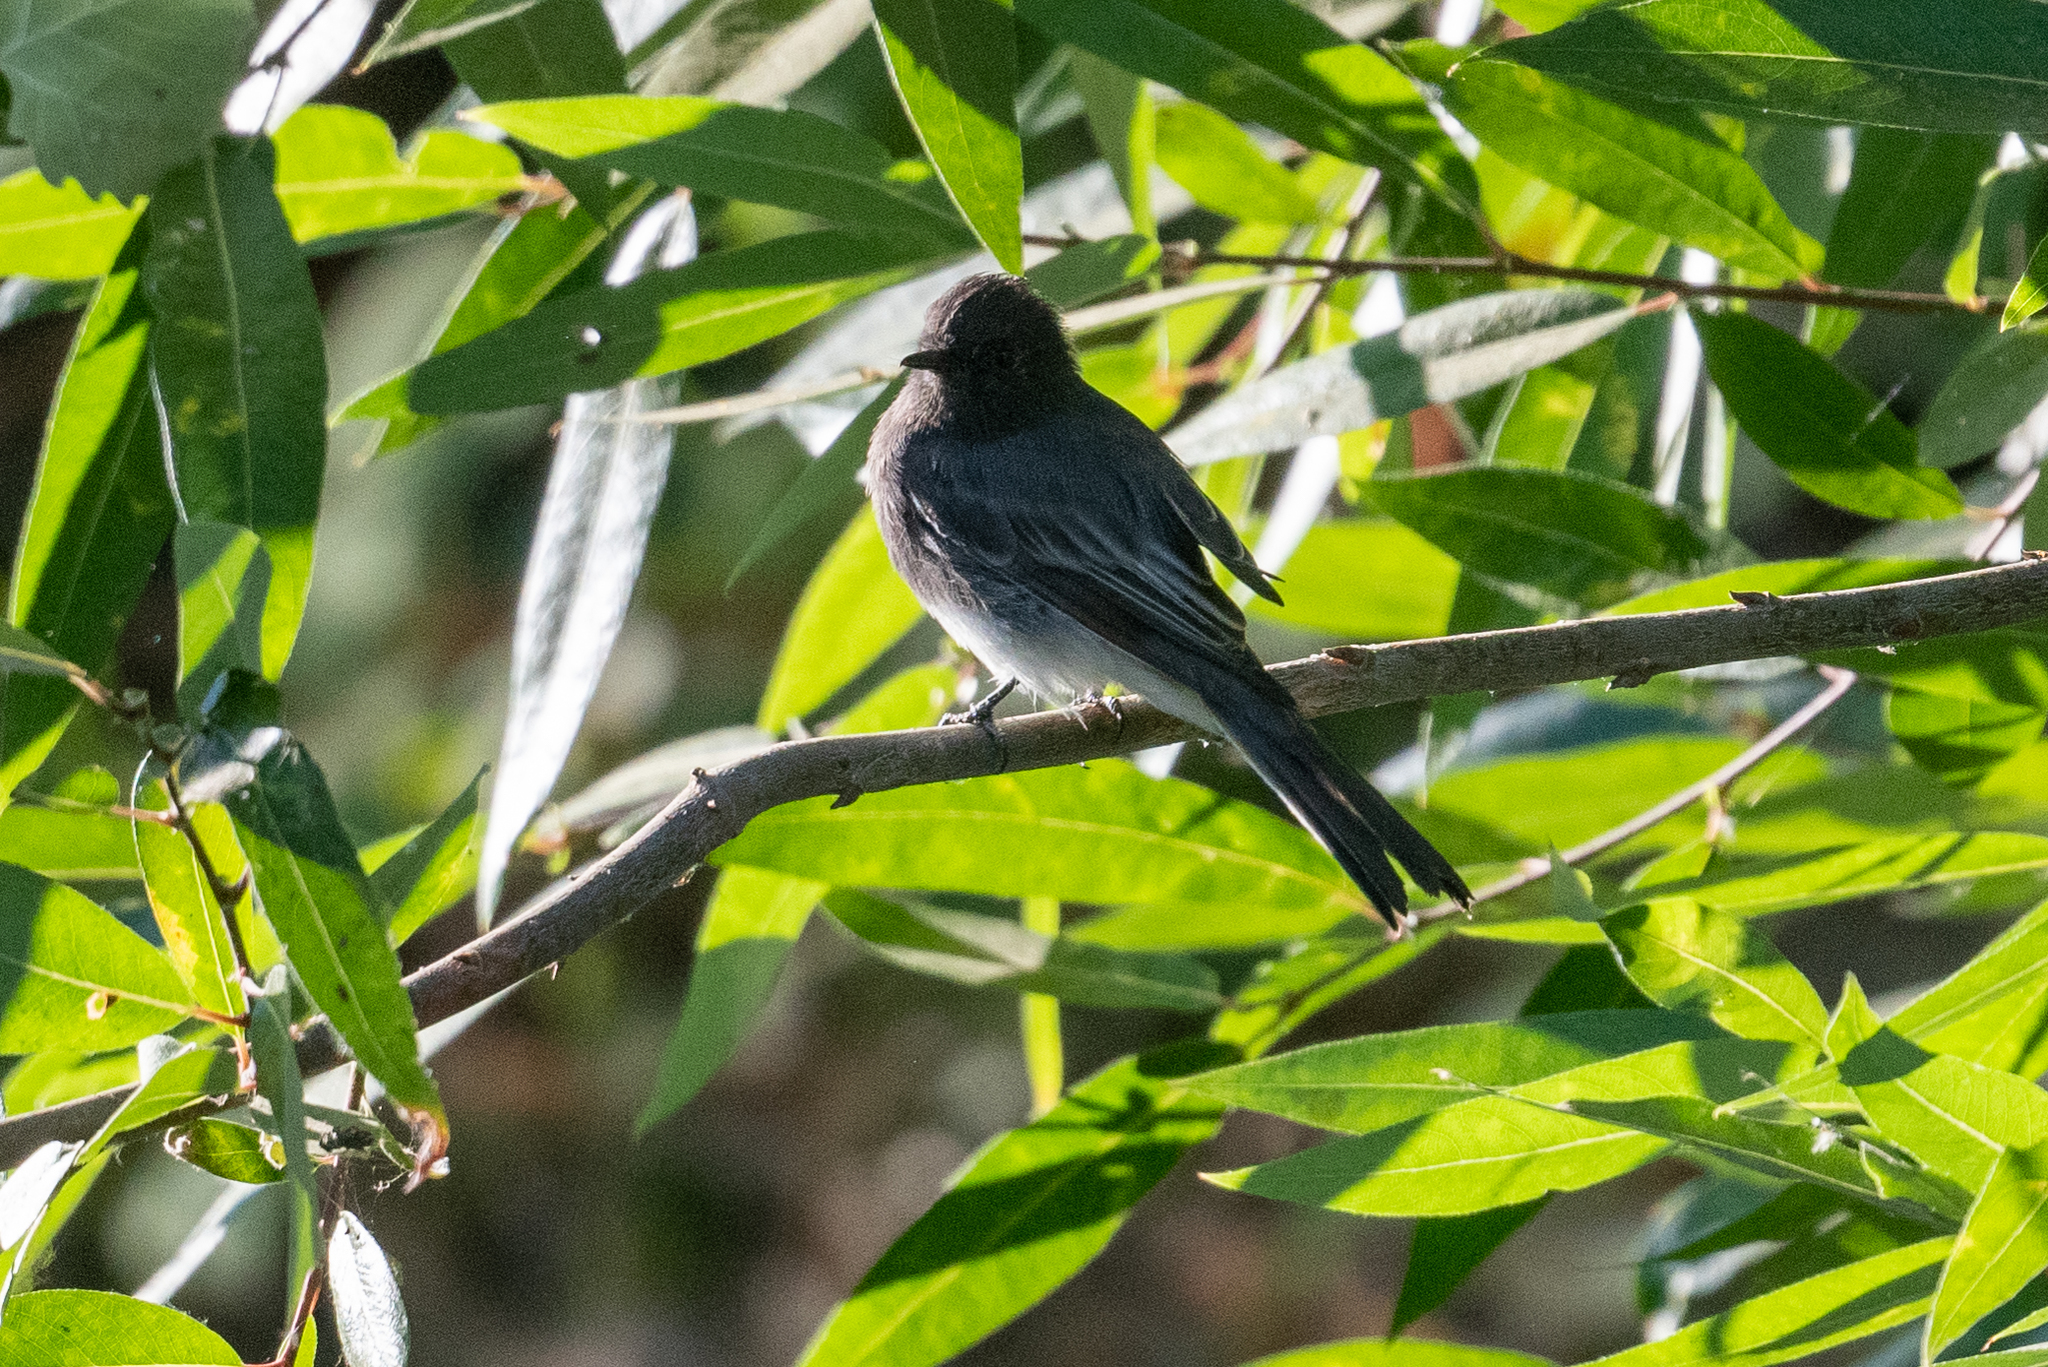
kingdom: Animalia
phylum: Chordata
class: Aves
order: Passeriformes
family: Tyrannidae
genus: Sayornis
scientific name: Sayornis nigricans
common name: Black phoebe
